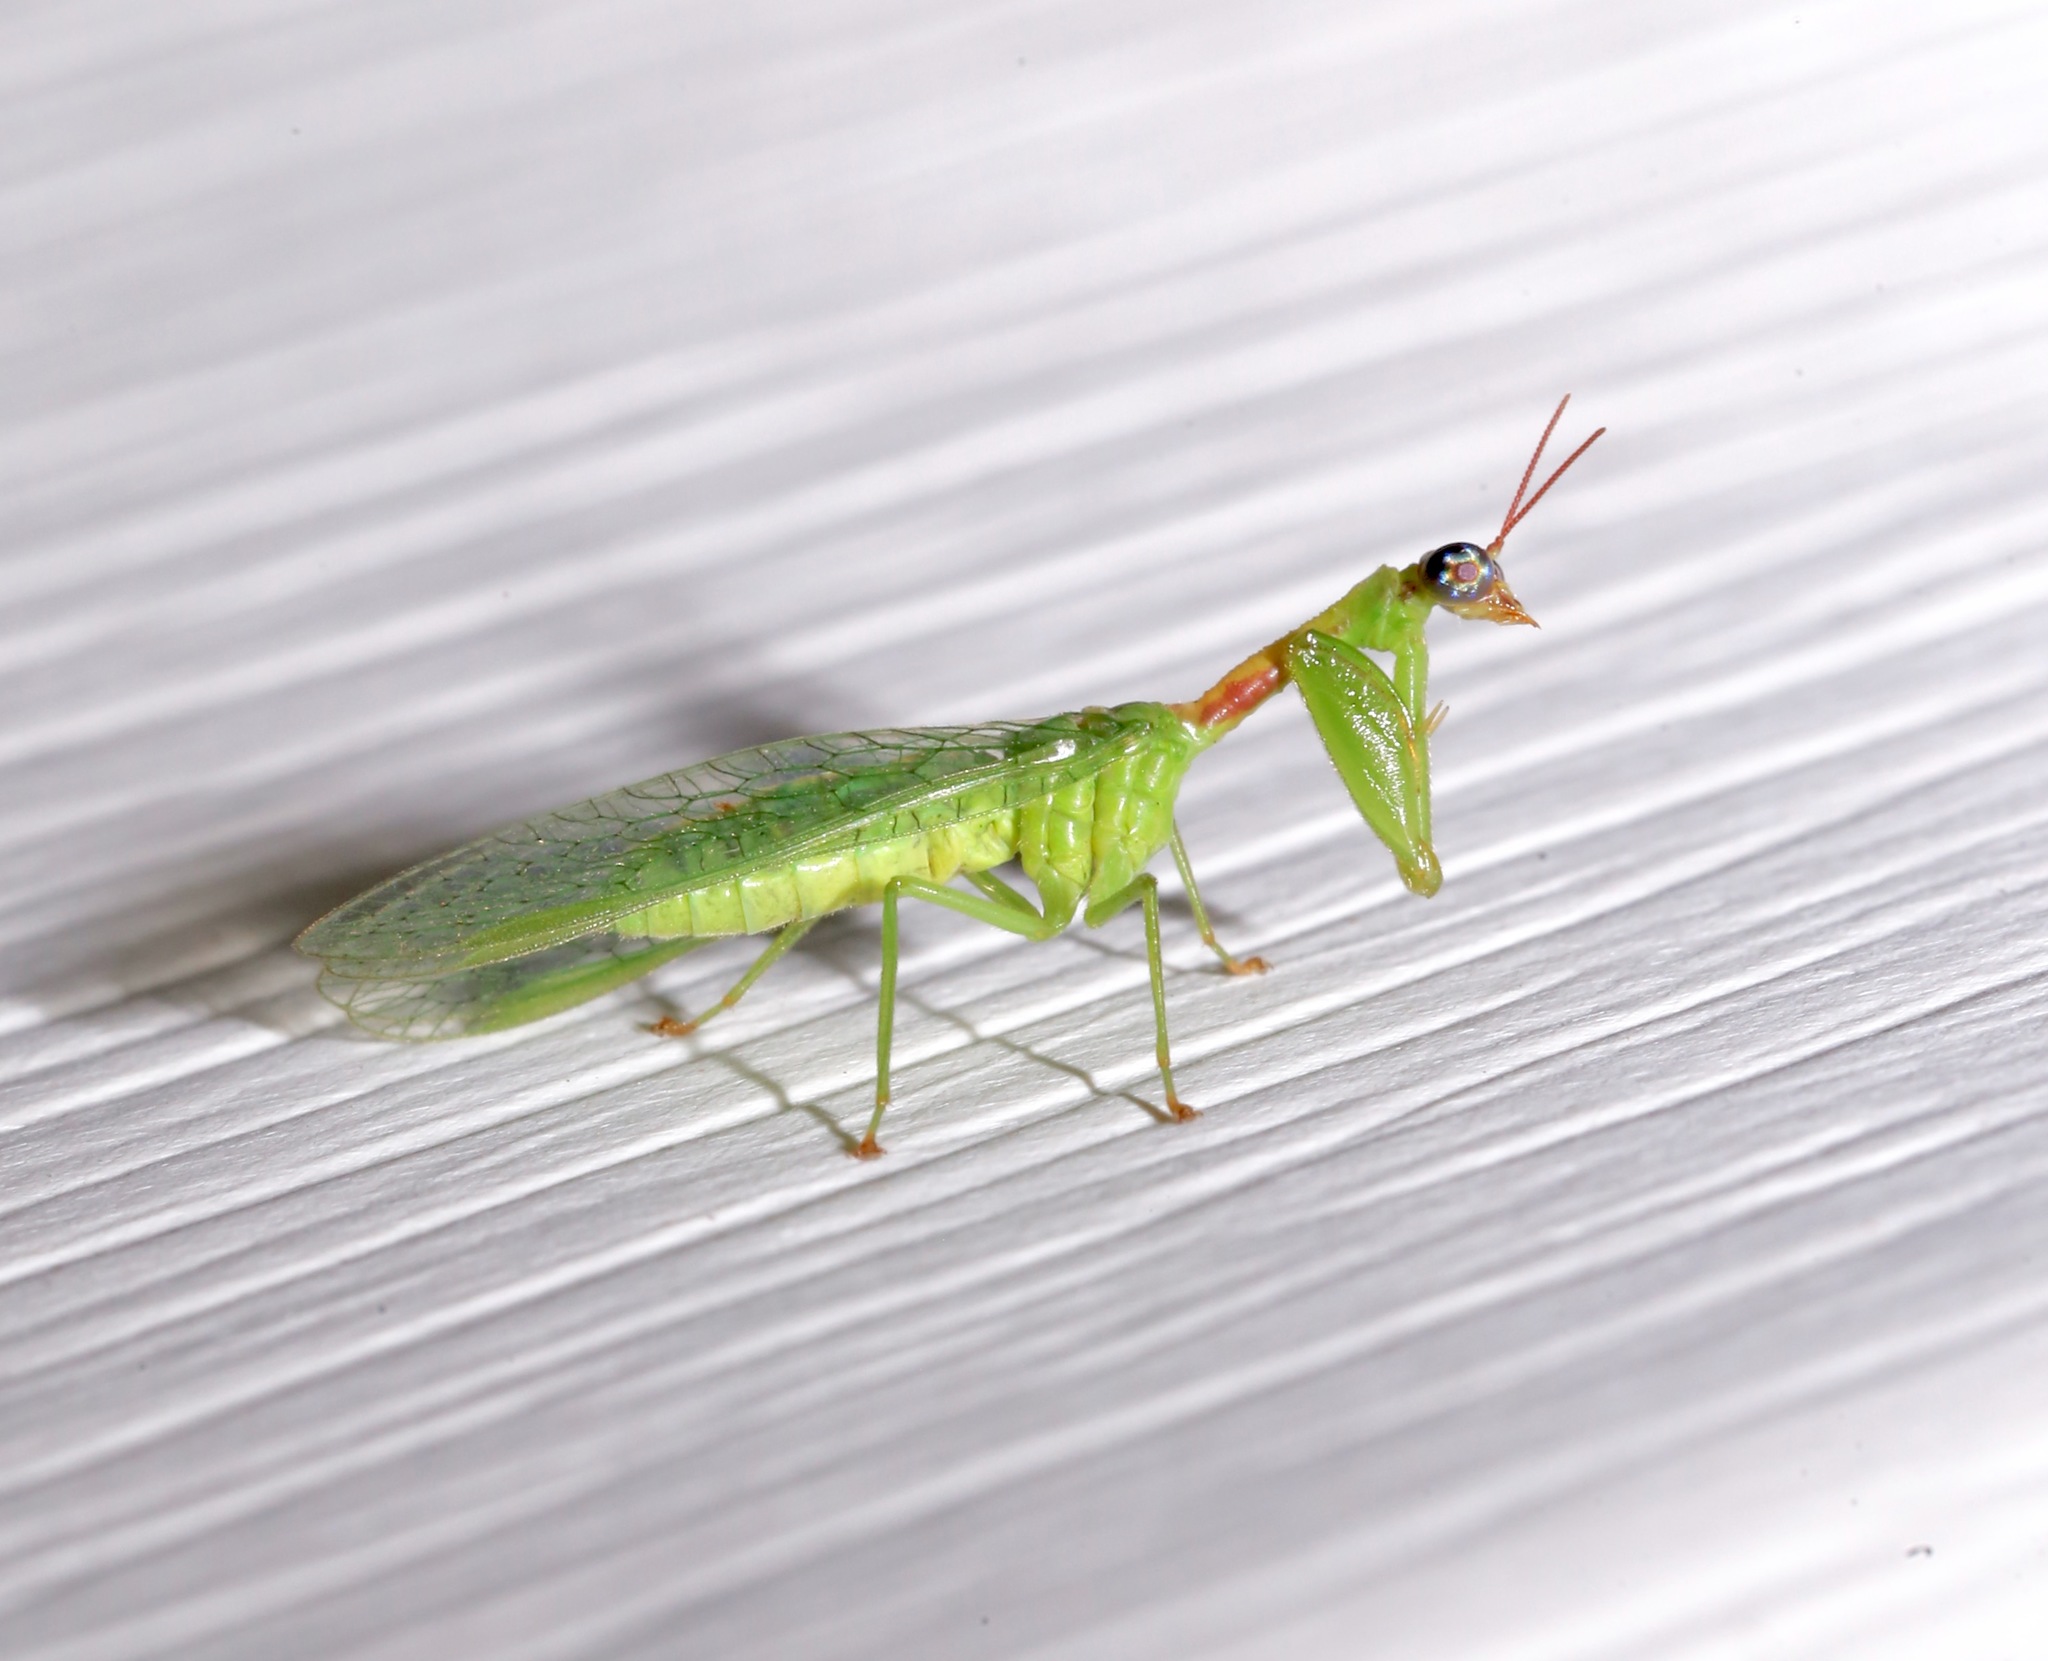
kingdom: Animalia
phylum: Arthropoda
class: Insecta
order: Neuroptera
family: Mantispidae
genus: Zeugomantispa
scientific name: Zeugomantispa minuta
